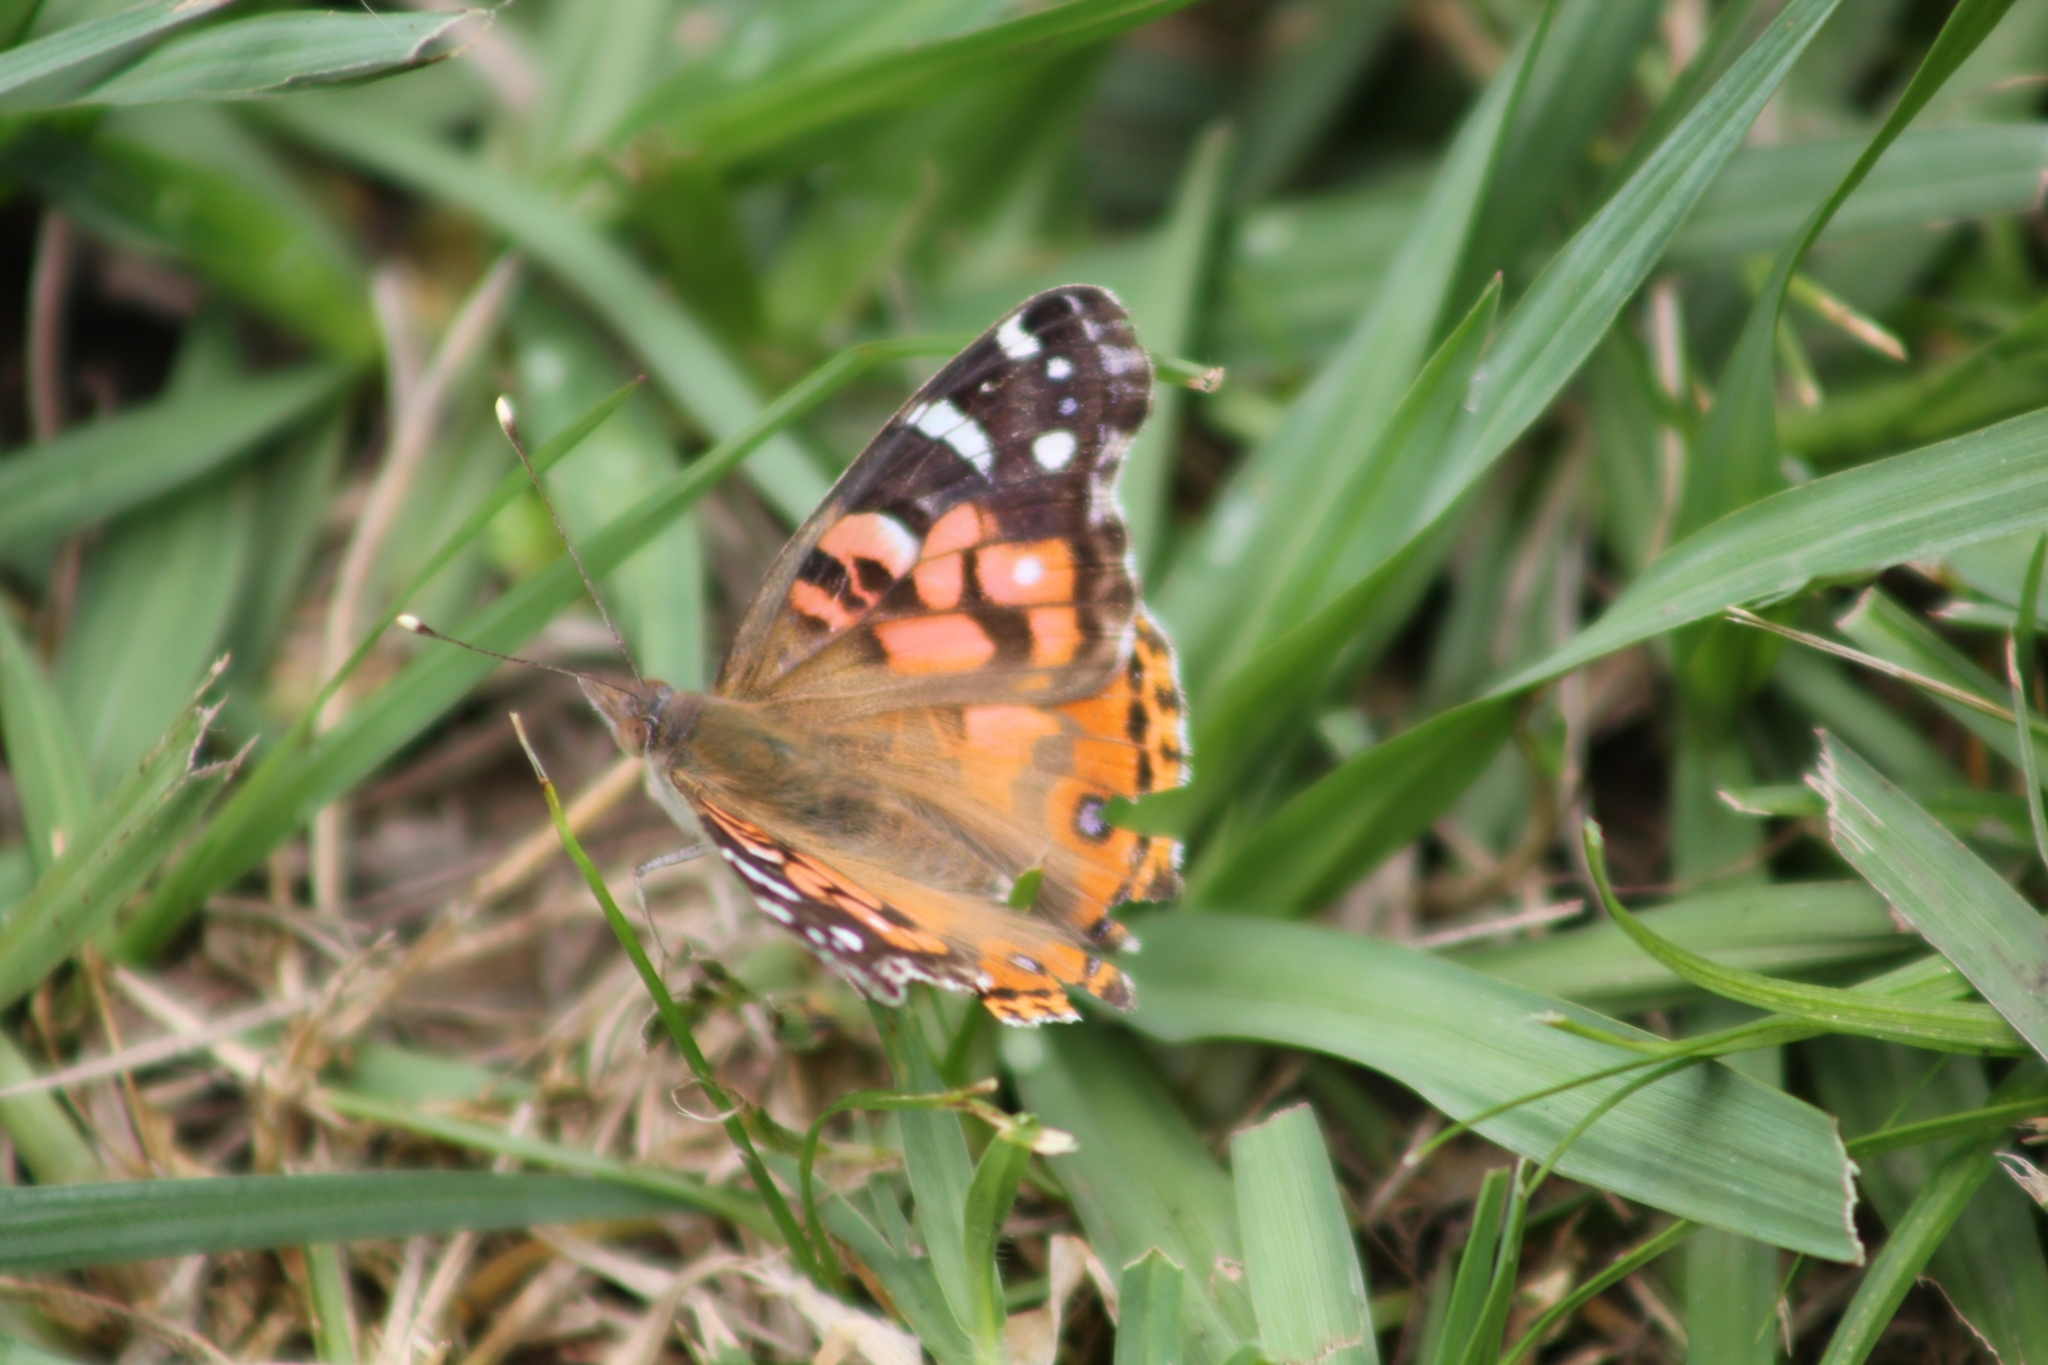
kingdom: Animalia
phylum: Arthropoda
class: Insecta
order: Lepidoptera
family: Nymphalidae
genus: Vanessa
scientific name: Vanessa braziliensis
